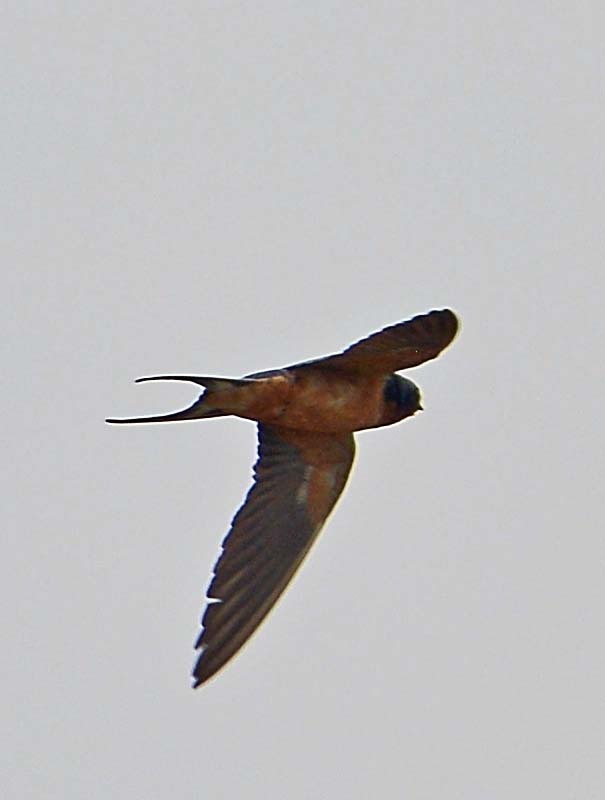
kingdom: Animalia
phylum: Chordata
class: Aves
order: Passeriformes
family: Hirundinidae
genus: Hirundo
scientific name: Hirundo rustica
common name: Barn swallow
